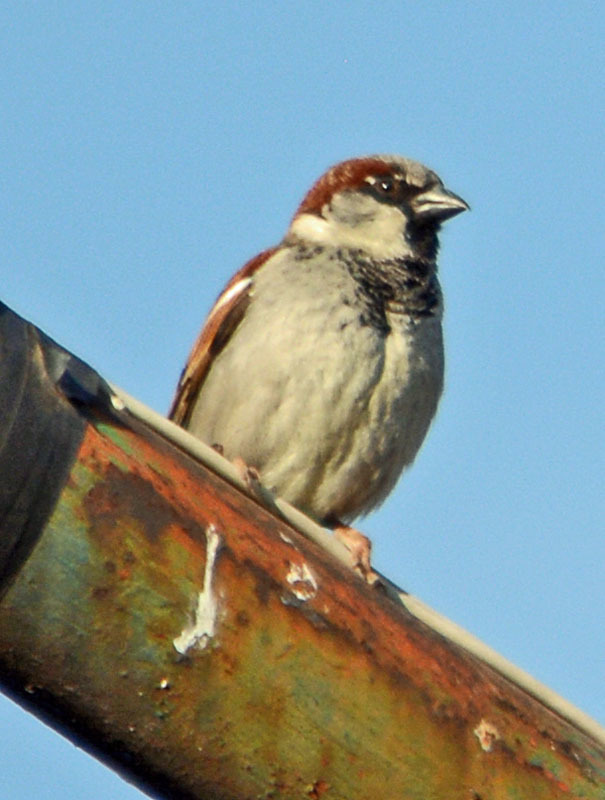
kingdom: Animalia
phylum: Chordata
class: Aves
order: Passeriformes
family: Passeridae
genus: Passer
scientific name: Passer domesticus
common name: House sparrow
